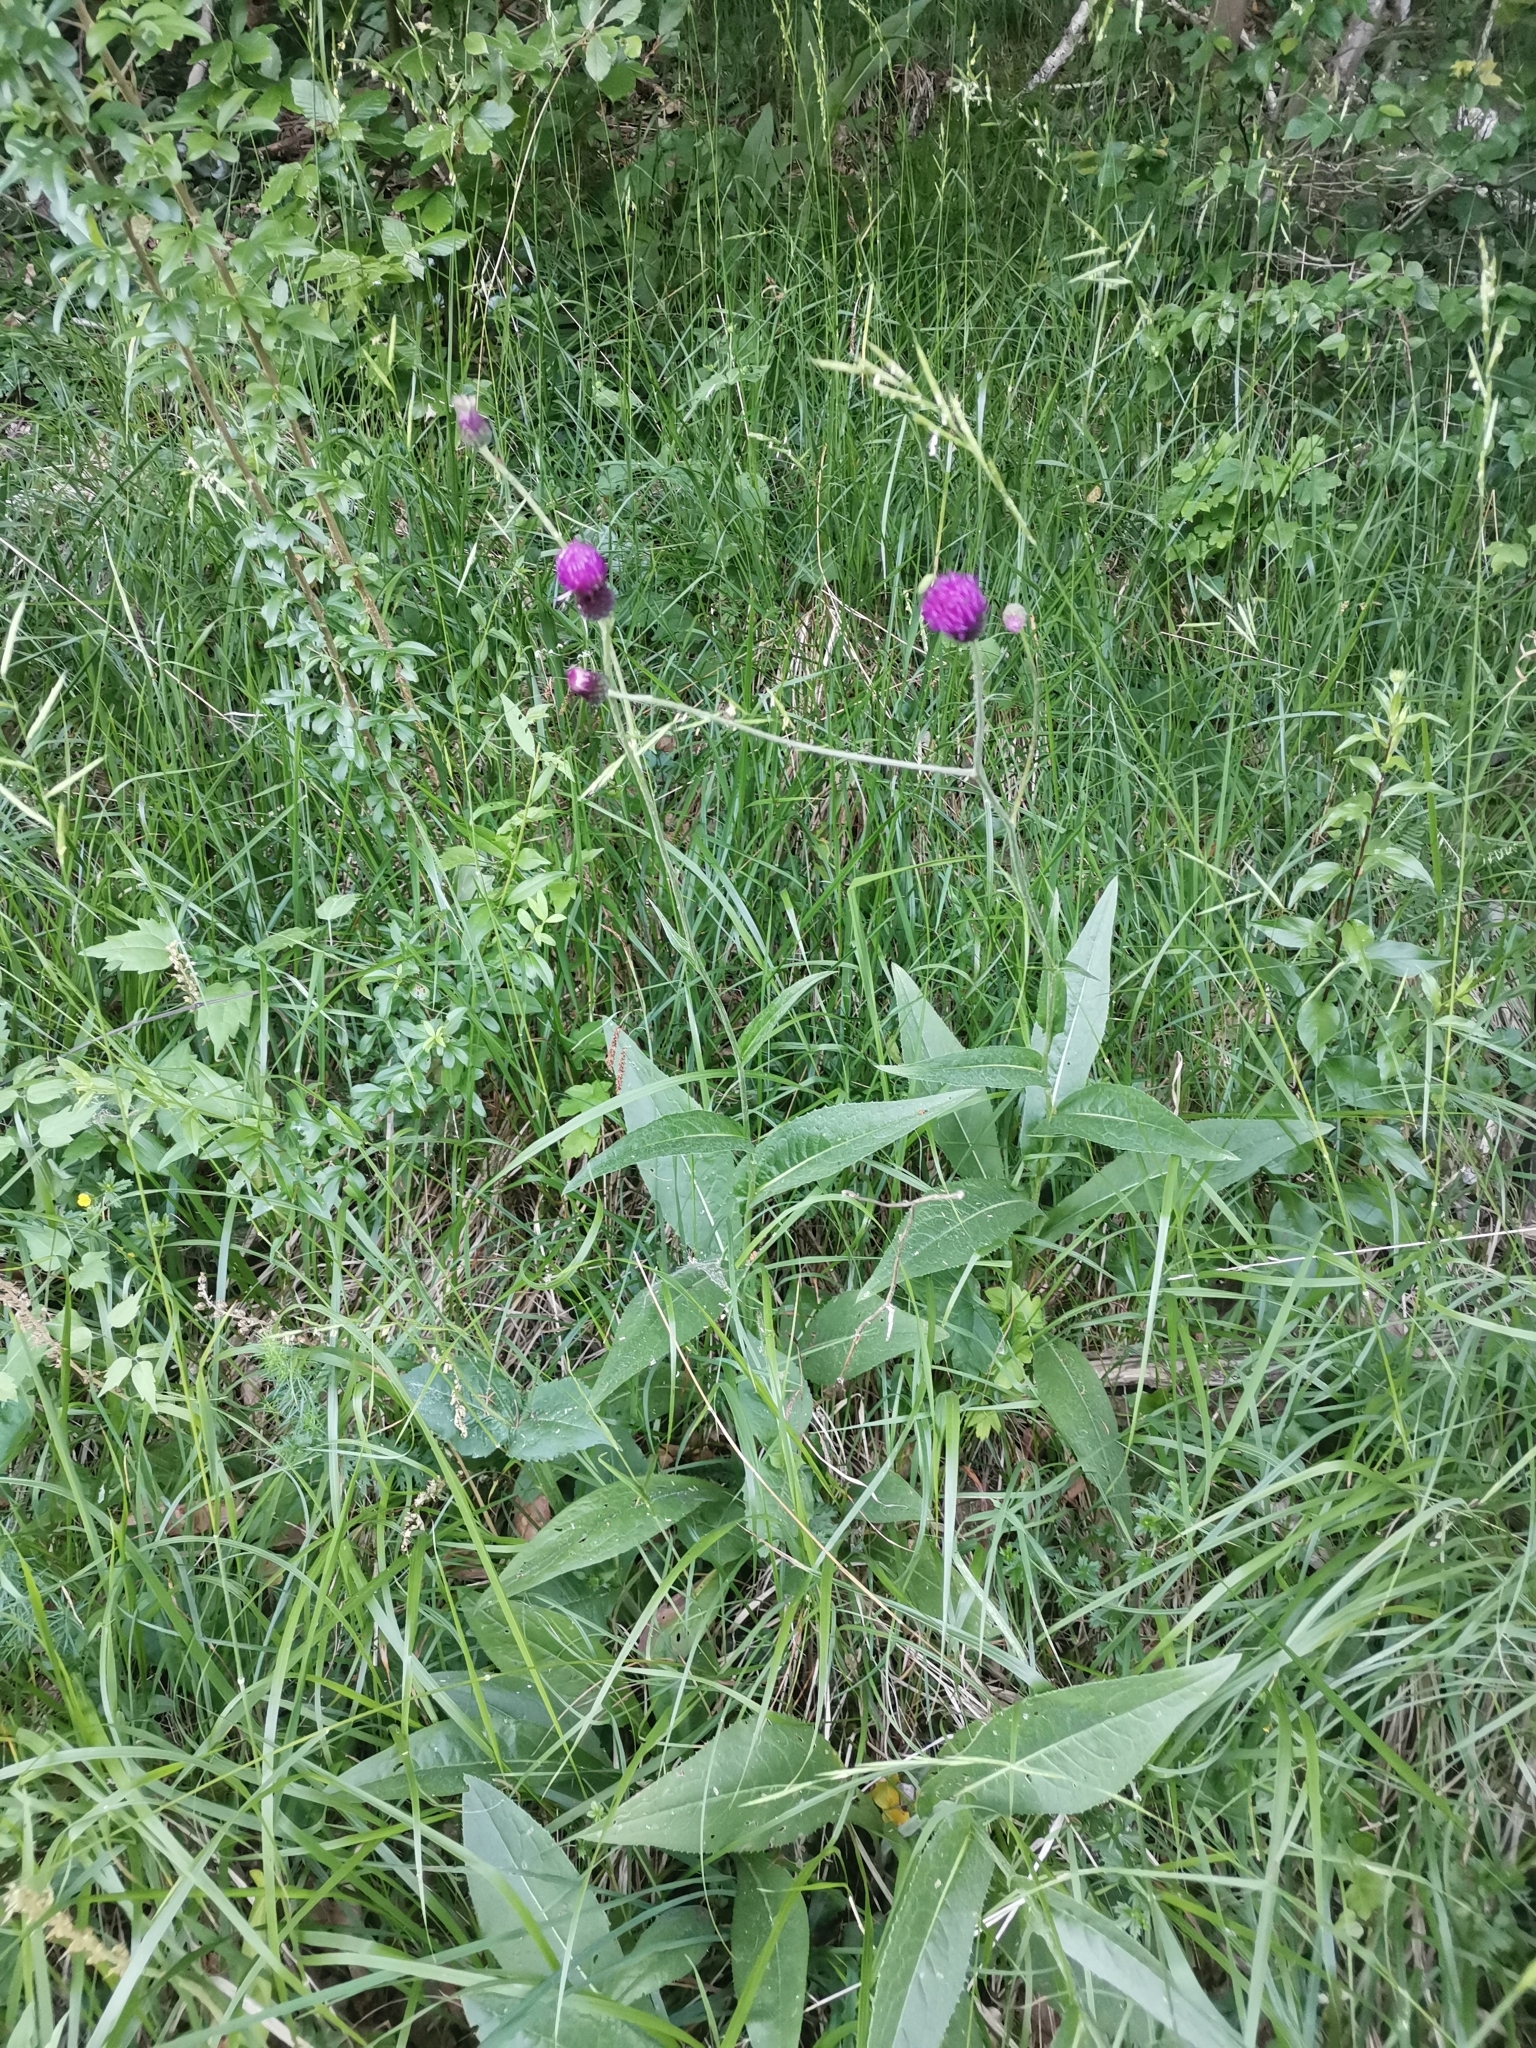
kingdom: Plantae
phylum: Tracheophyta
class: Magnoliopsida
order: Asterales
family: Asteraceae
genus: Cirsium
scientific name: Cirsium pannonicum
